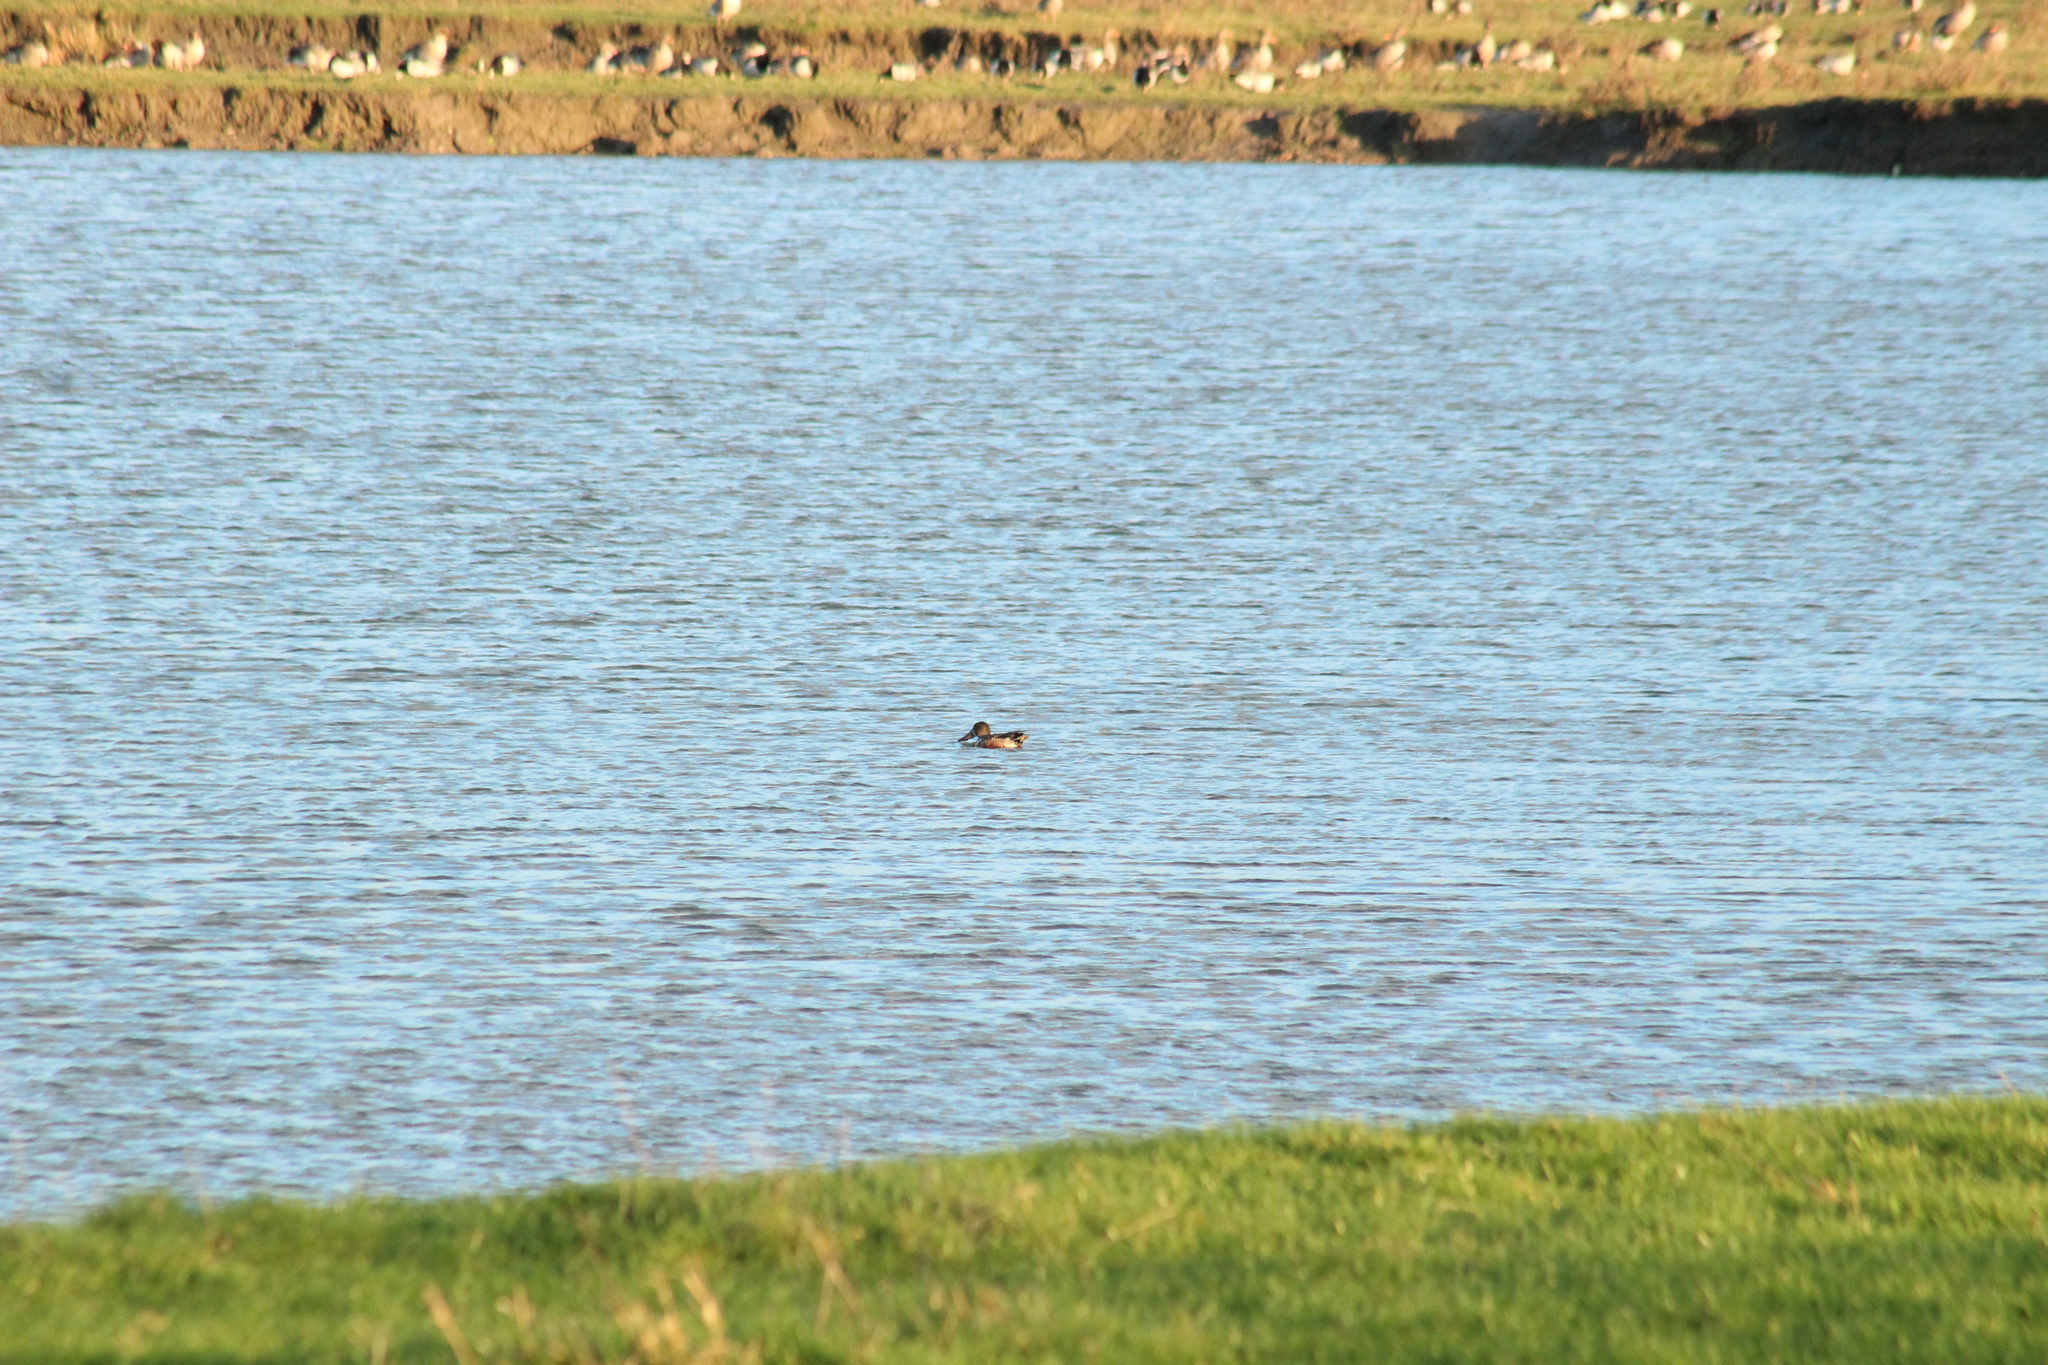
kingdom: Animalia
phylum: Chordata
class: Aves
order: Anseriformes
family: Anatidae
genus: Spatula
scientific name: Spatula clypeata
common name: Northern shoveler
